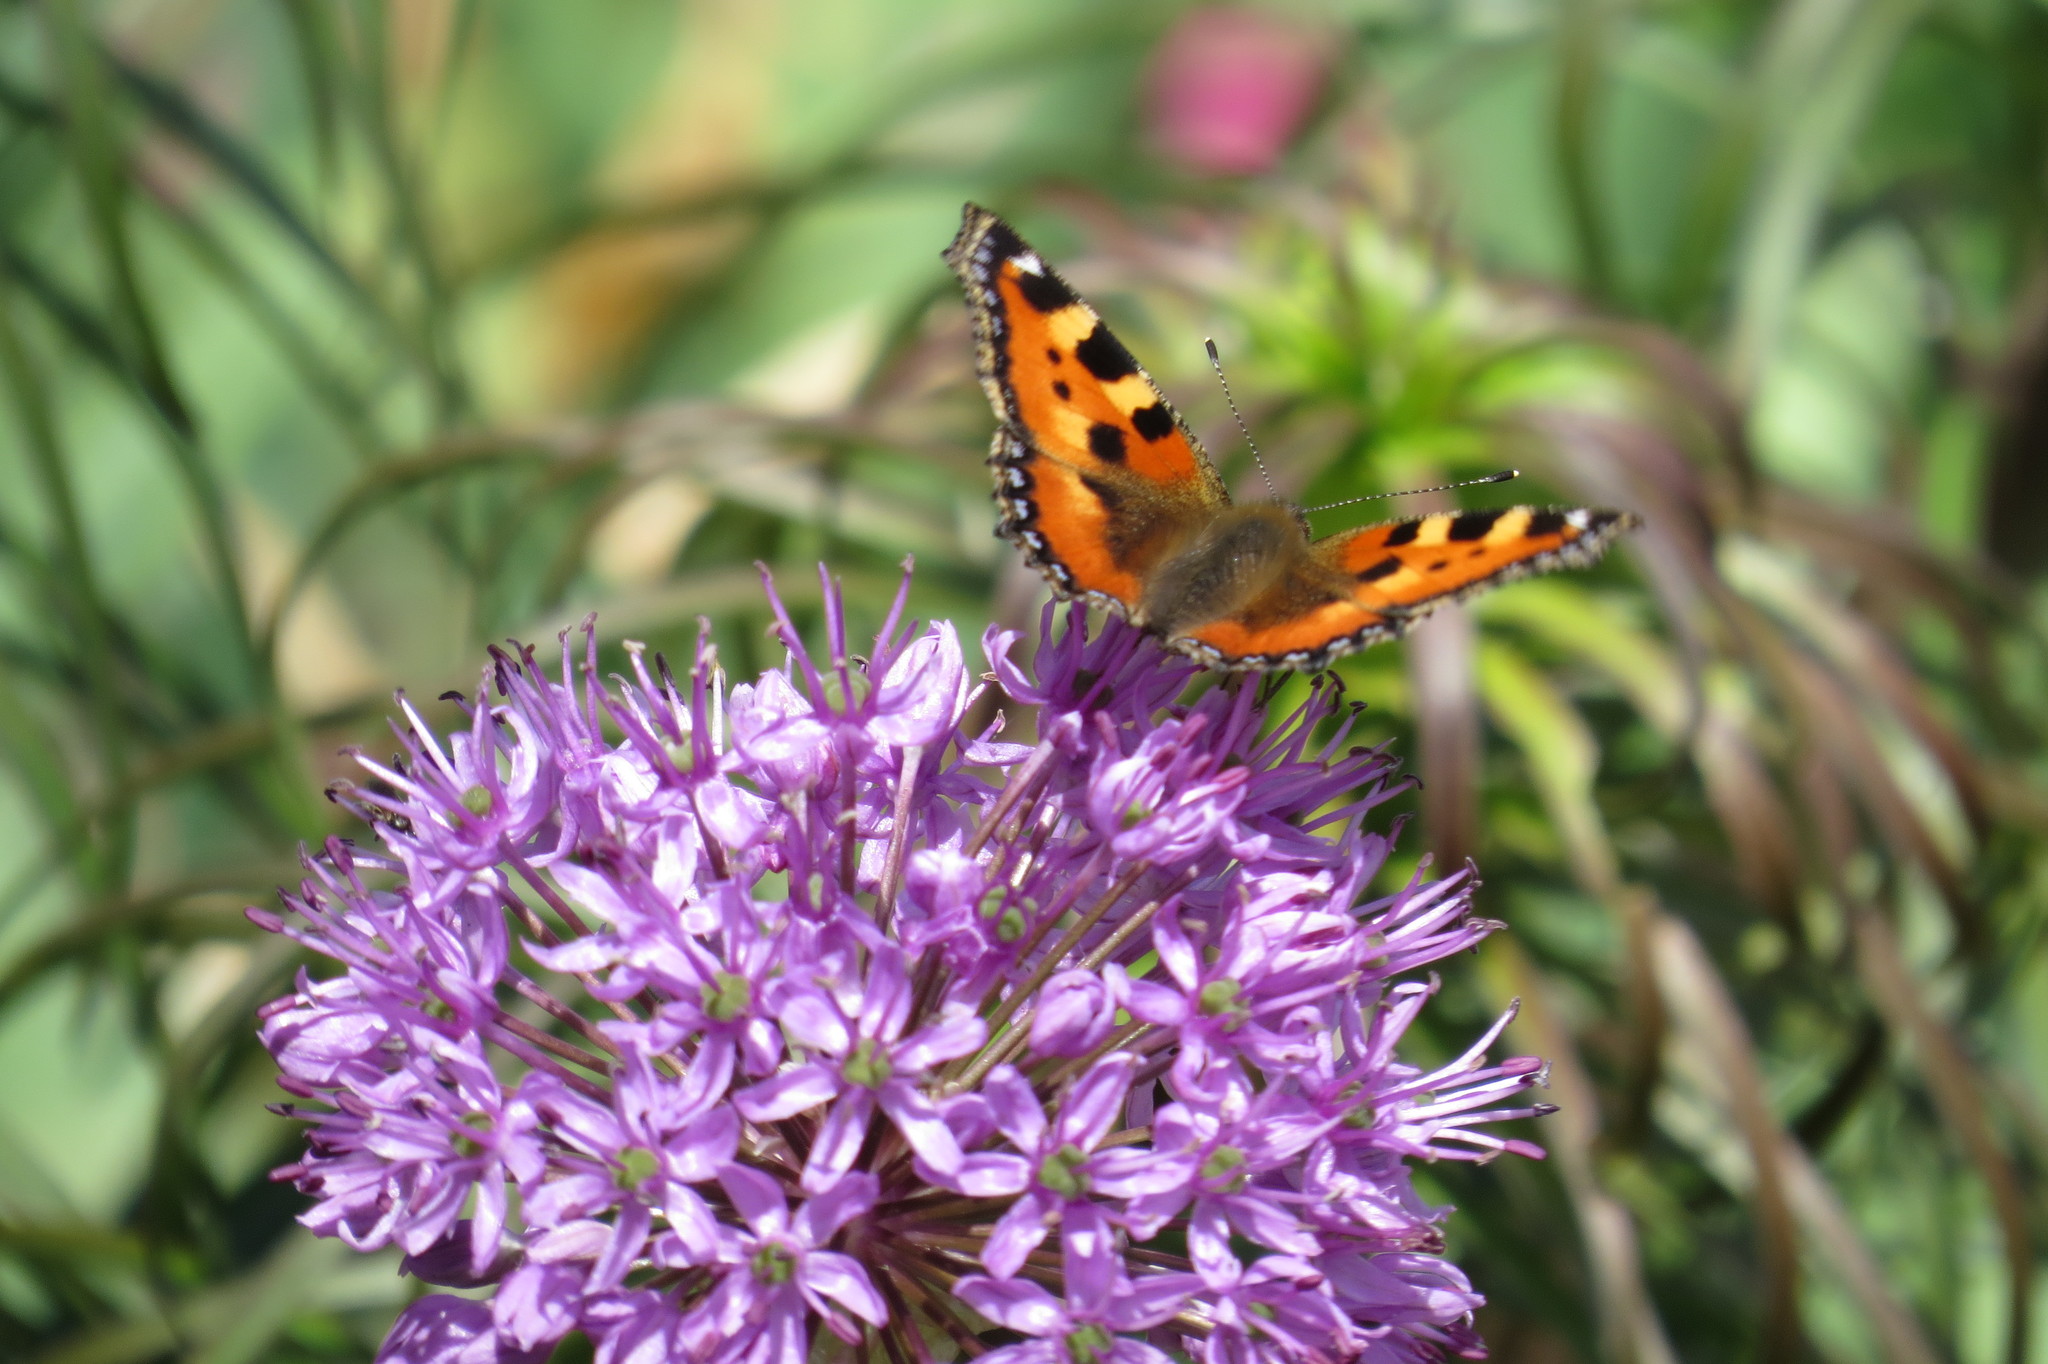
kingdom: Animalia
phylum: Arthropoda
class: Insecta
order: Lepidoptera
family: Nymphalidae
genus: Aglais
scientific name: Aglais urticae
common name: Small tortoiseshell
